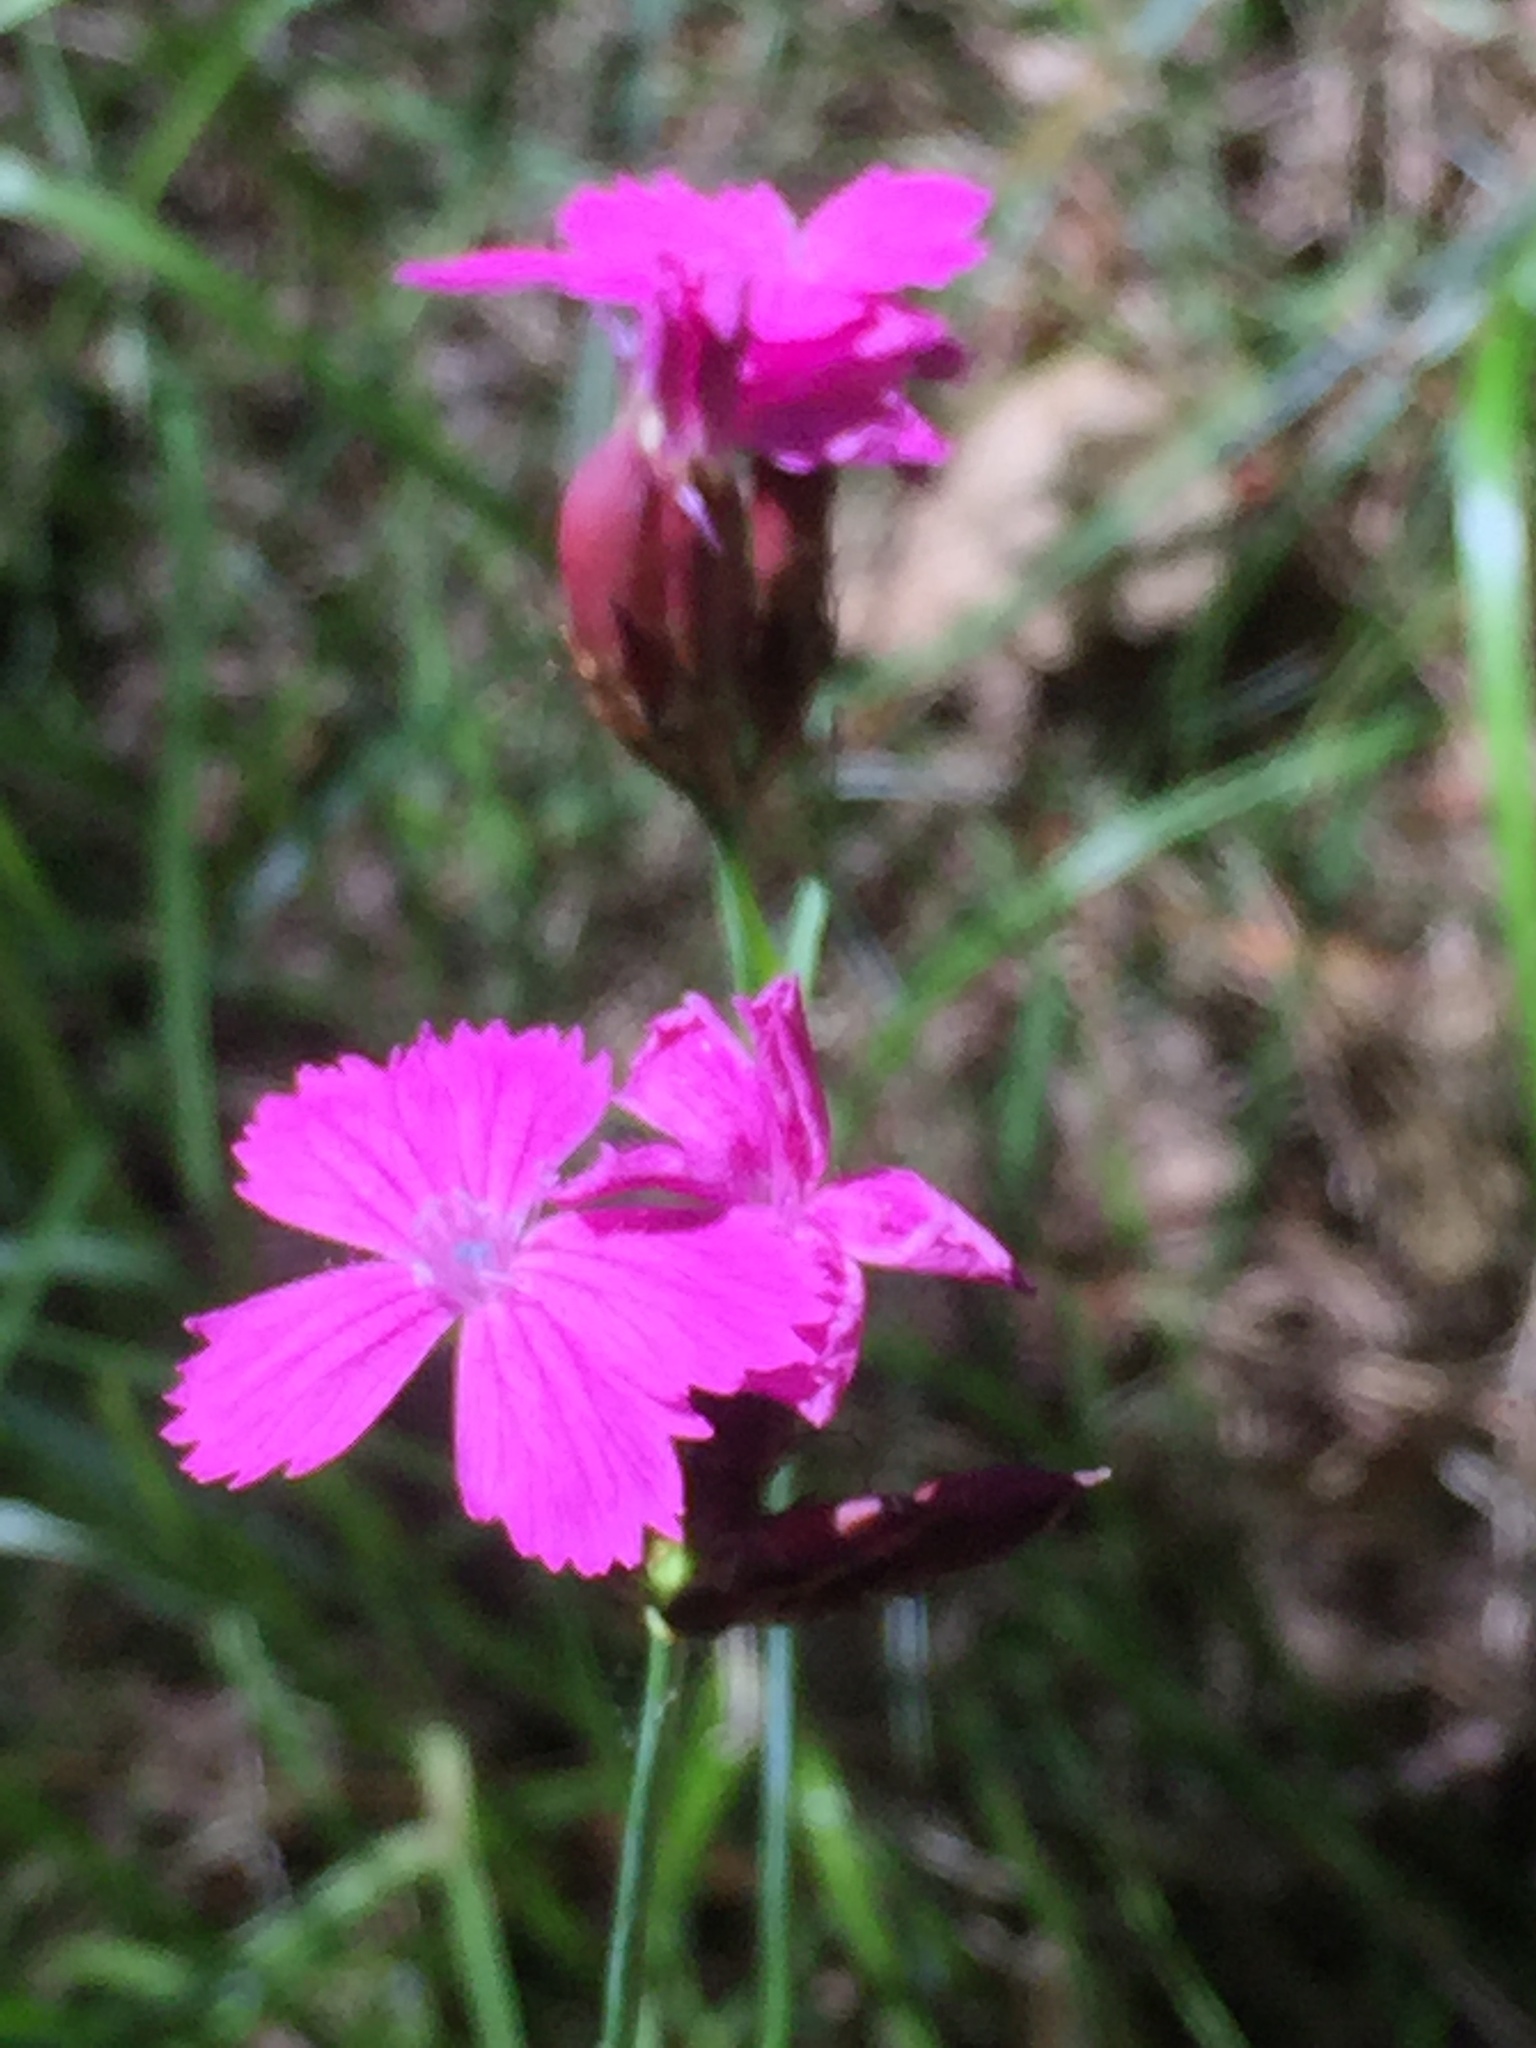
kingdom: Plantae
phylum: Tracheophyta
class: Magnoliopsida
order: Caryophyllales
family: Caryophyllaceae
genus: Dianthus
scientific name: Dianthus carthusianorum
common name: Carthusian pink
